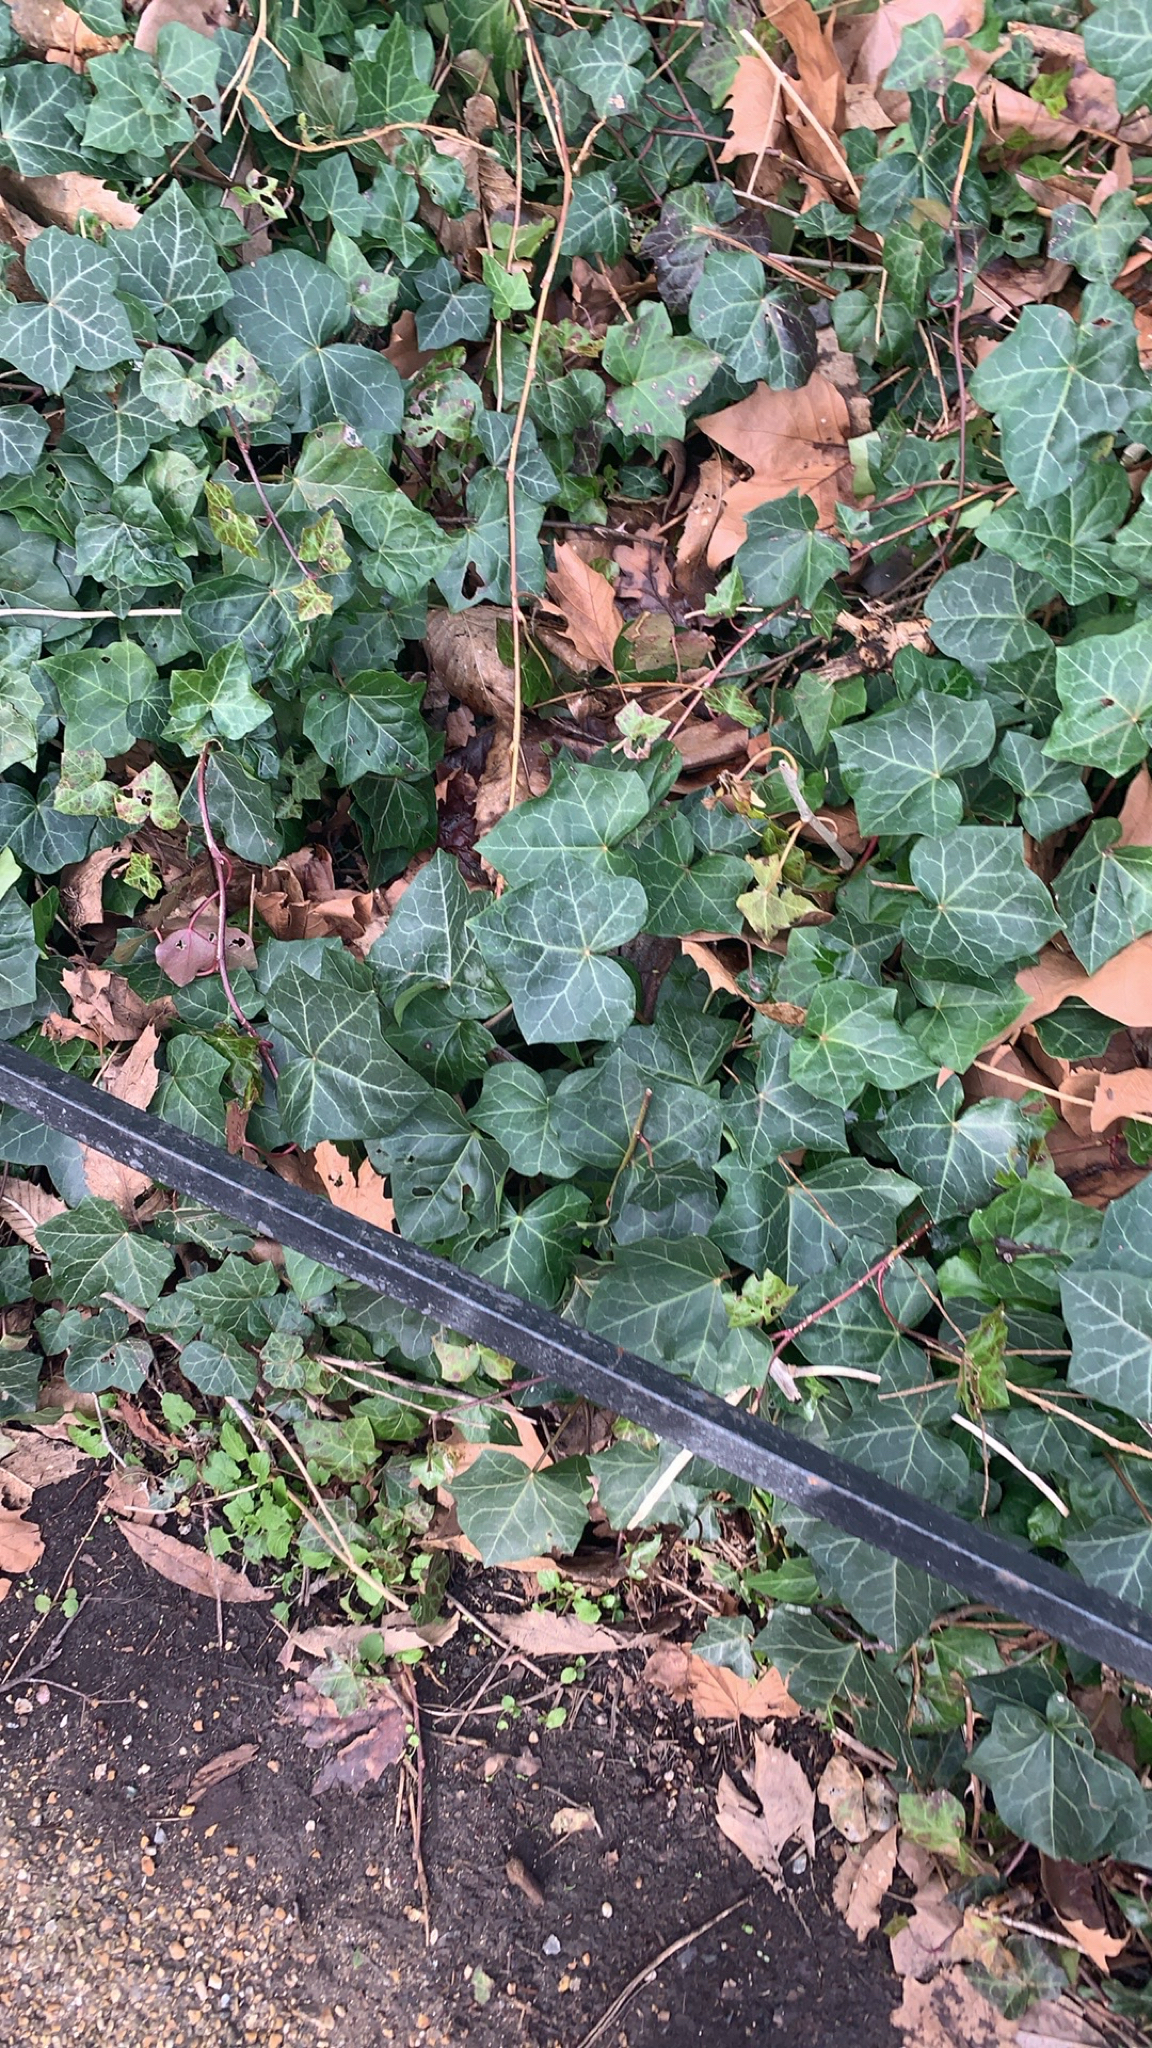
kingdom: Plantae
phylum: Tracheophyta
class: Magnoliopsida
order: Apiales
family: Araliaceae
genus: Hedera
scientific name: Hedera helix
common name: Ivy
